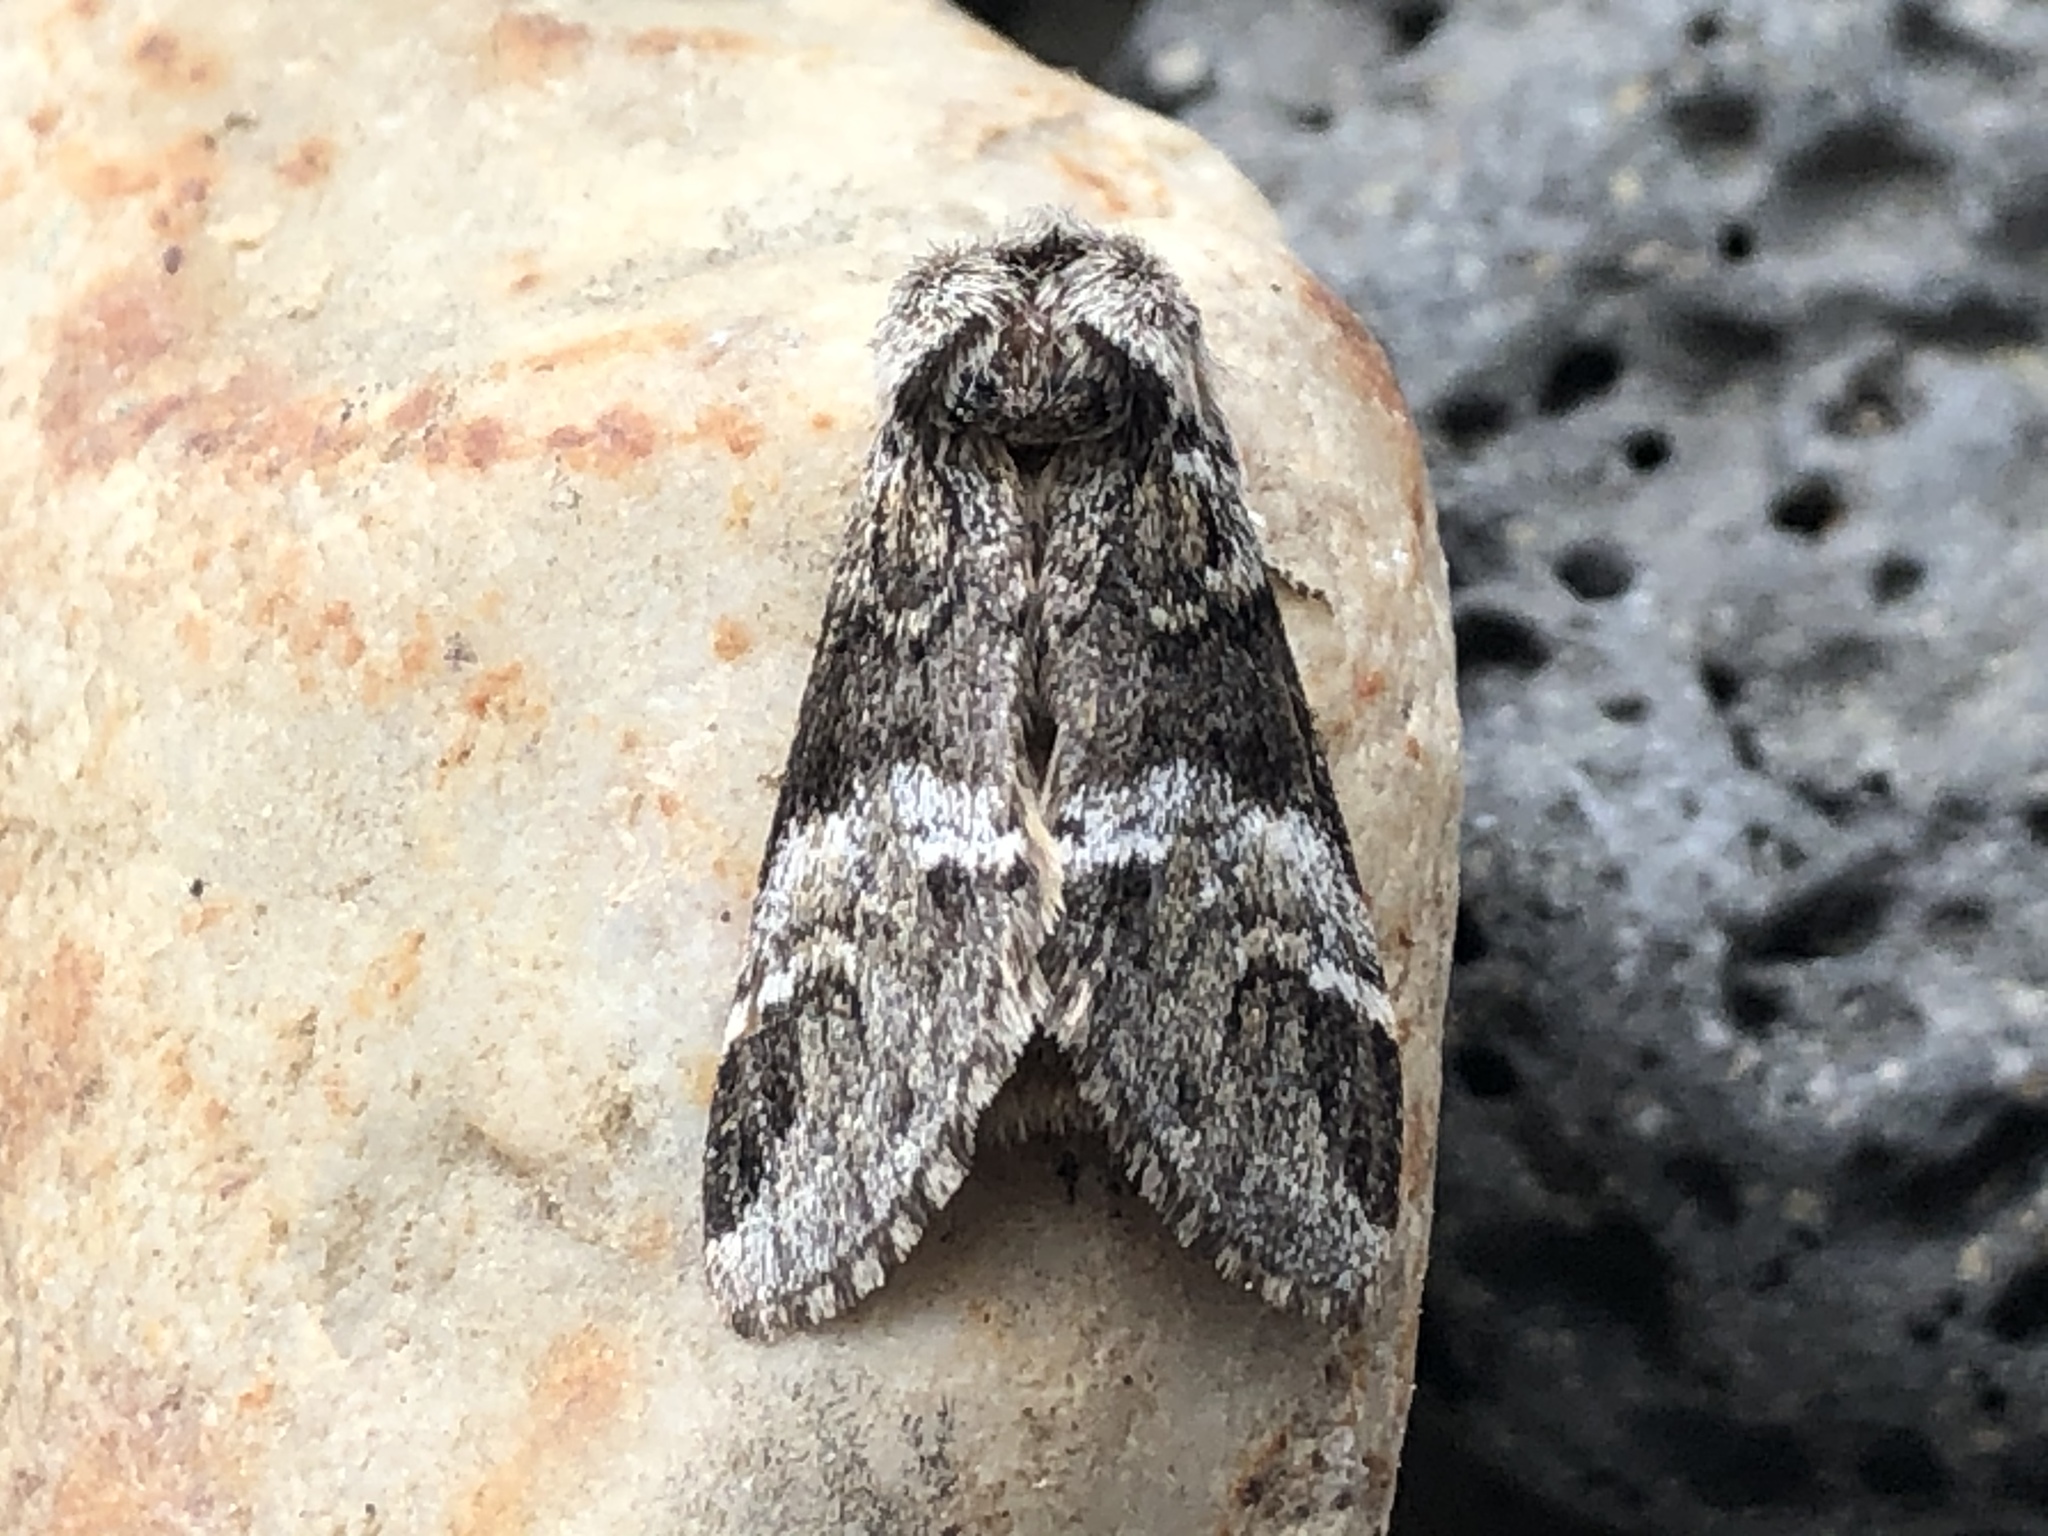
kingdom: Animalia
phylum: Arthropoda
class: Insecta
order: Lepidoptera
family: Notodontidae
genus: Drymonia
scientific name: Drymonia dodonaea
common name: Marbled brown
